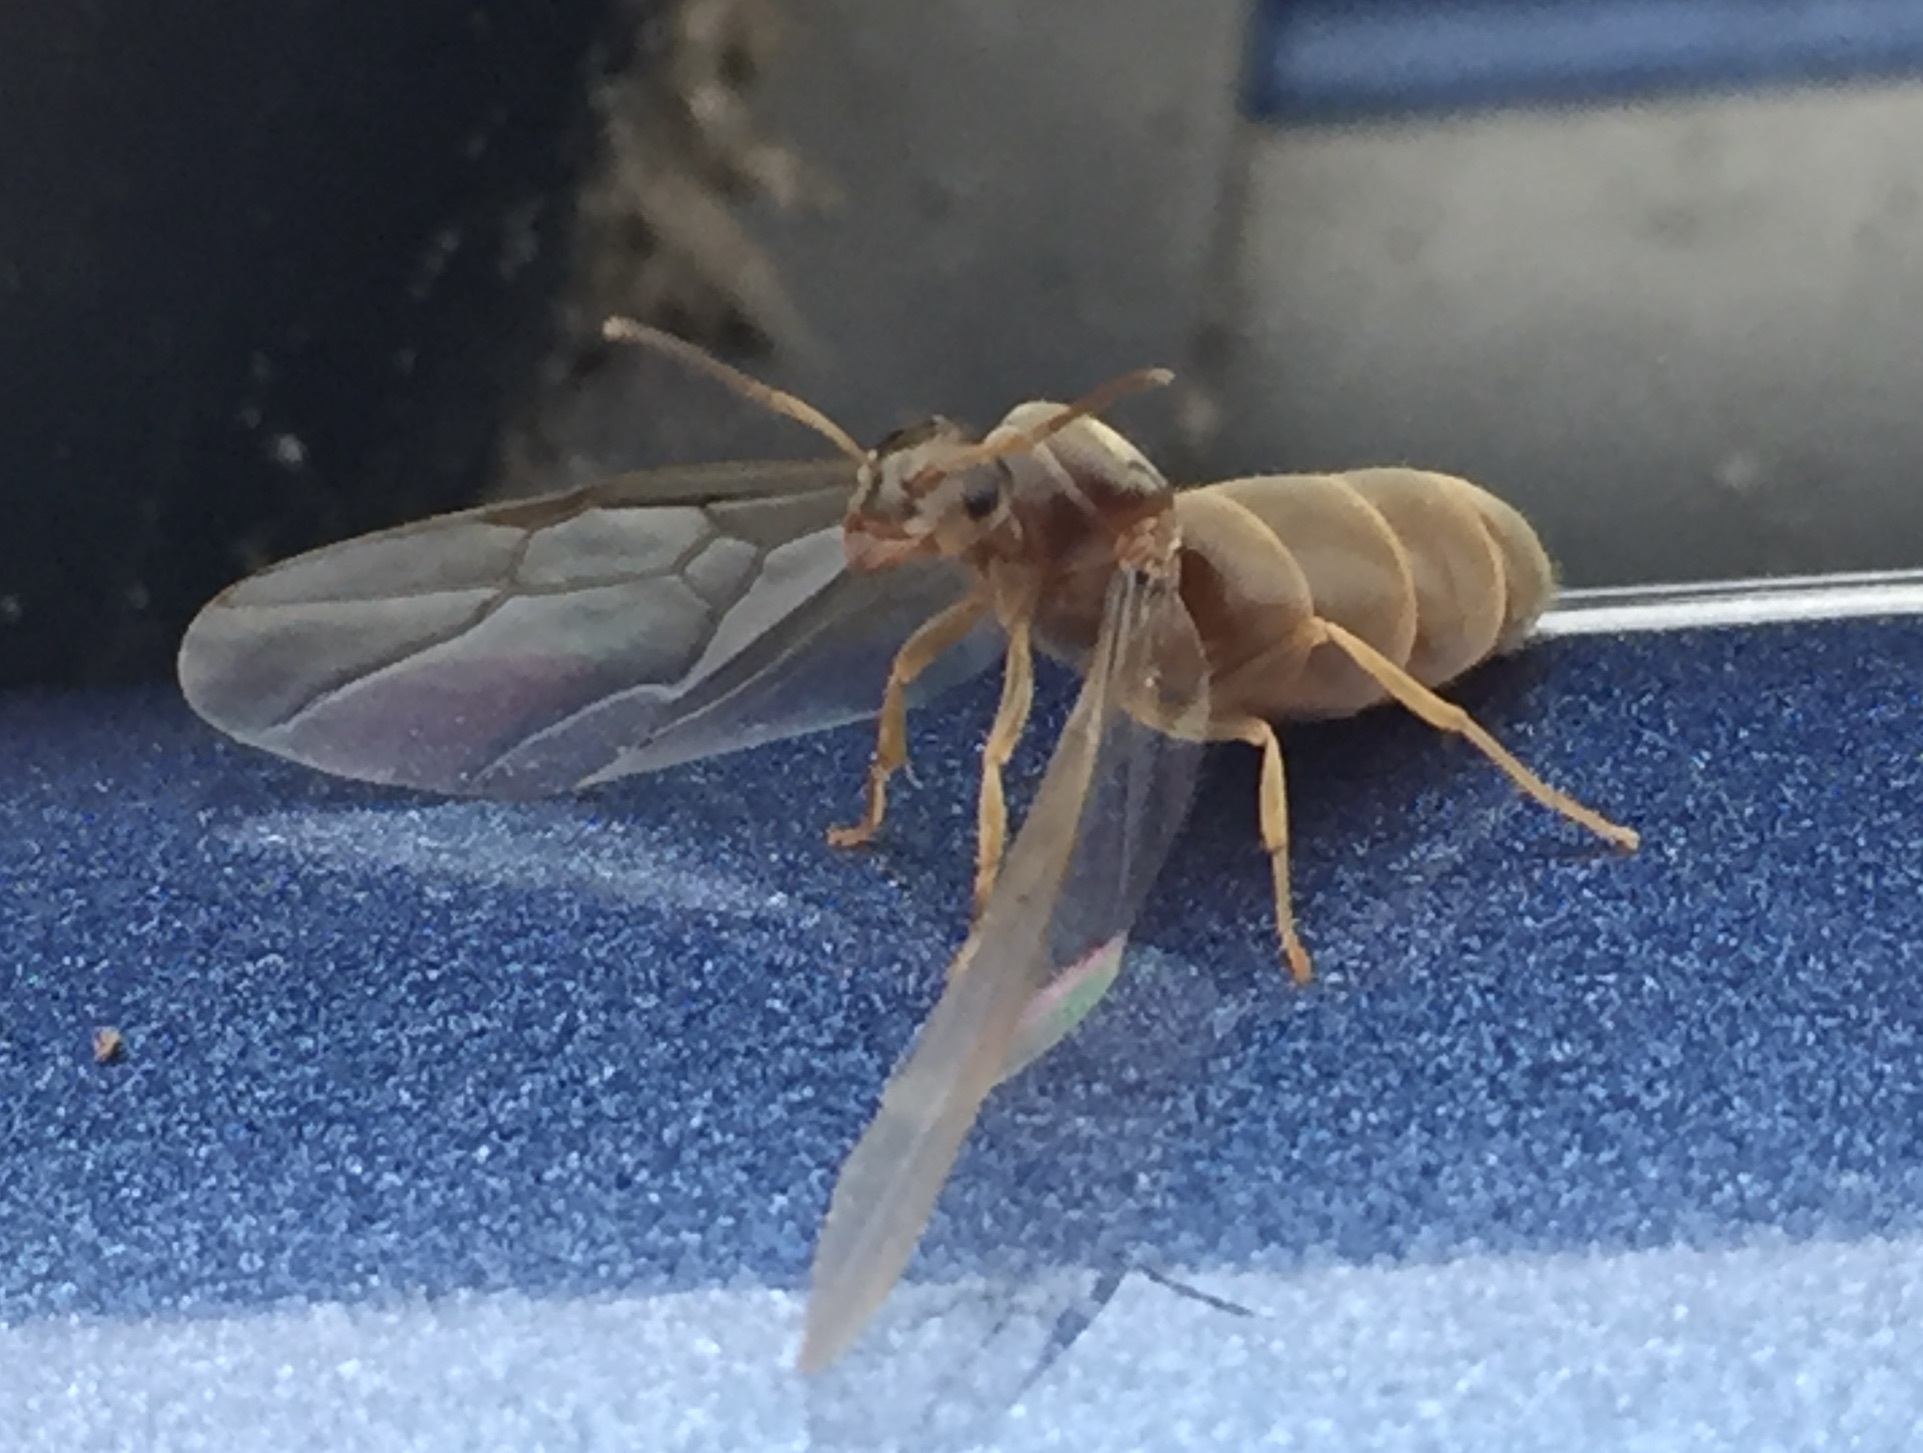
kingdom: Animalia
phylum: Arthropoda
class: Insecta
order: Hymenoptera
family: Formicidae
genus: Lasius
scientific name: Lasius neoniger
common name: Turfgrass ant
